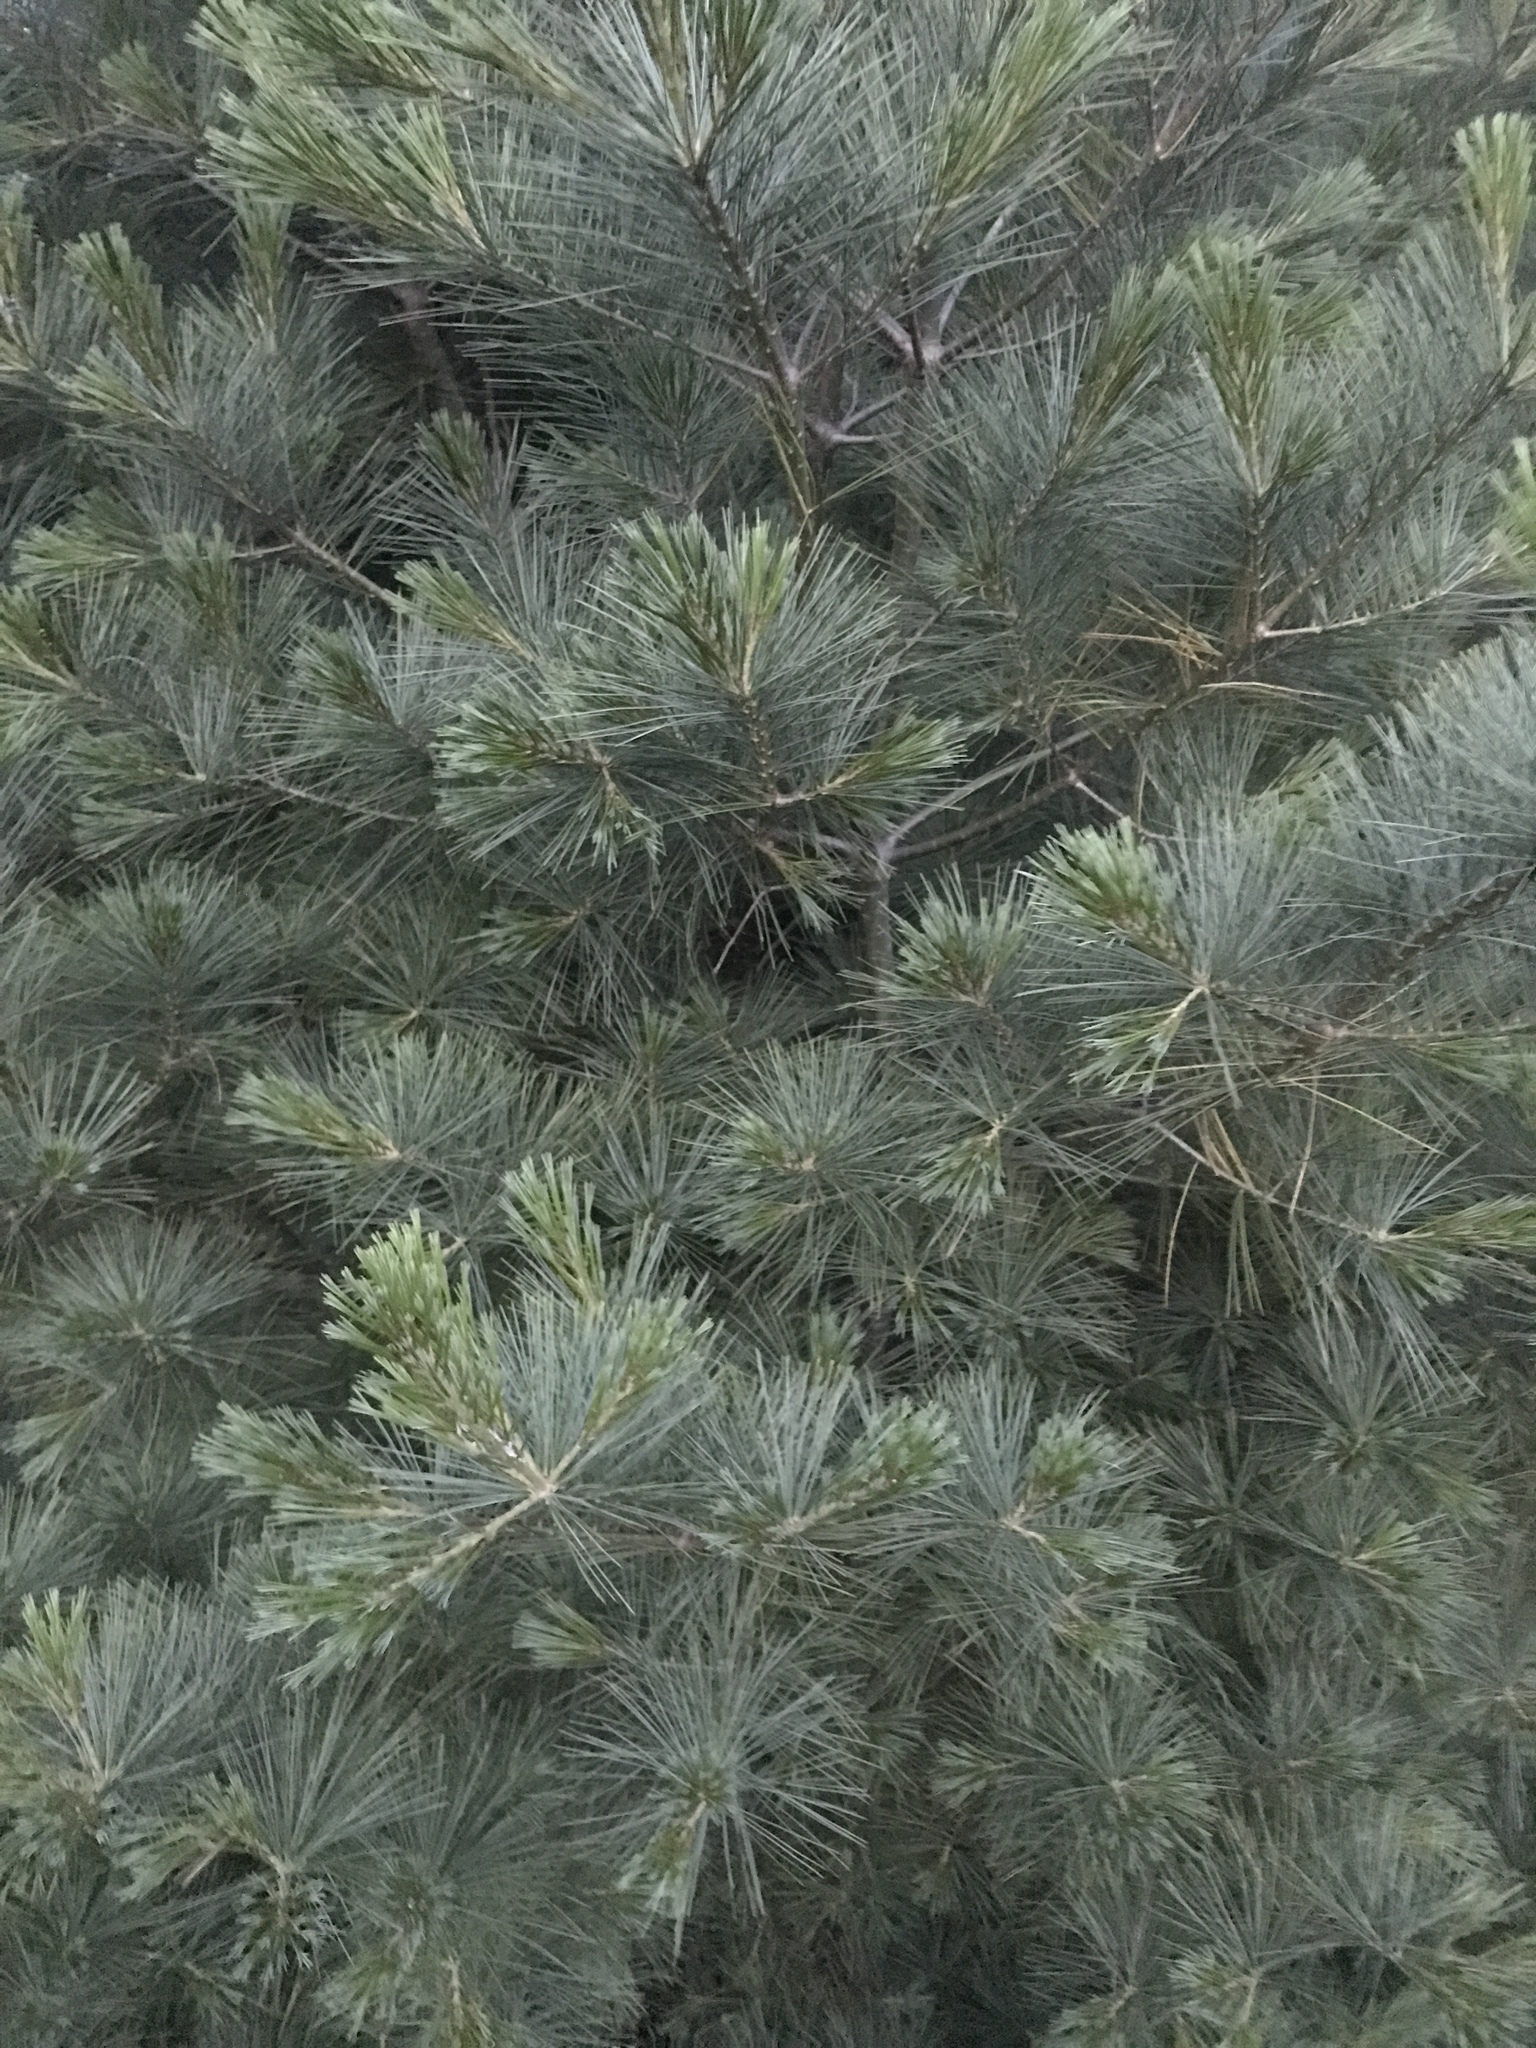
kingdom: Plantae
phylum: Tracheophyta
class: Pinopsida
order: Pinales
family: Pinaceae
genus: Pinus
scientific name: Pinus strobus
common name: Weymouth pine
